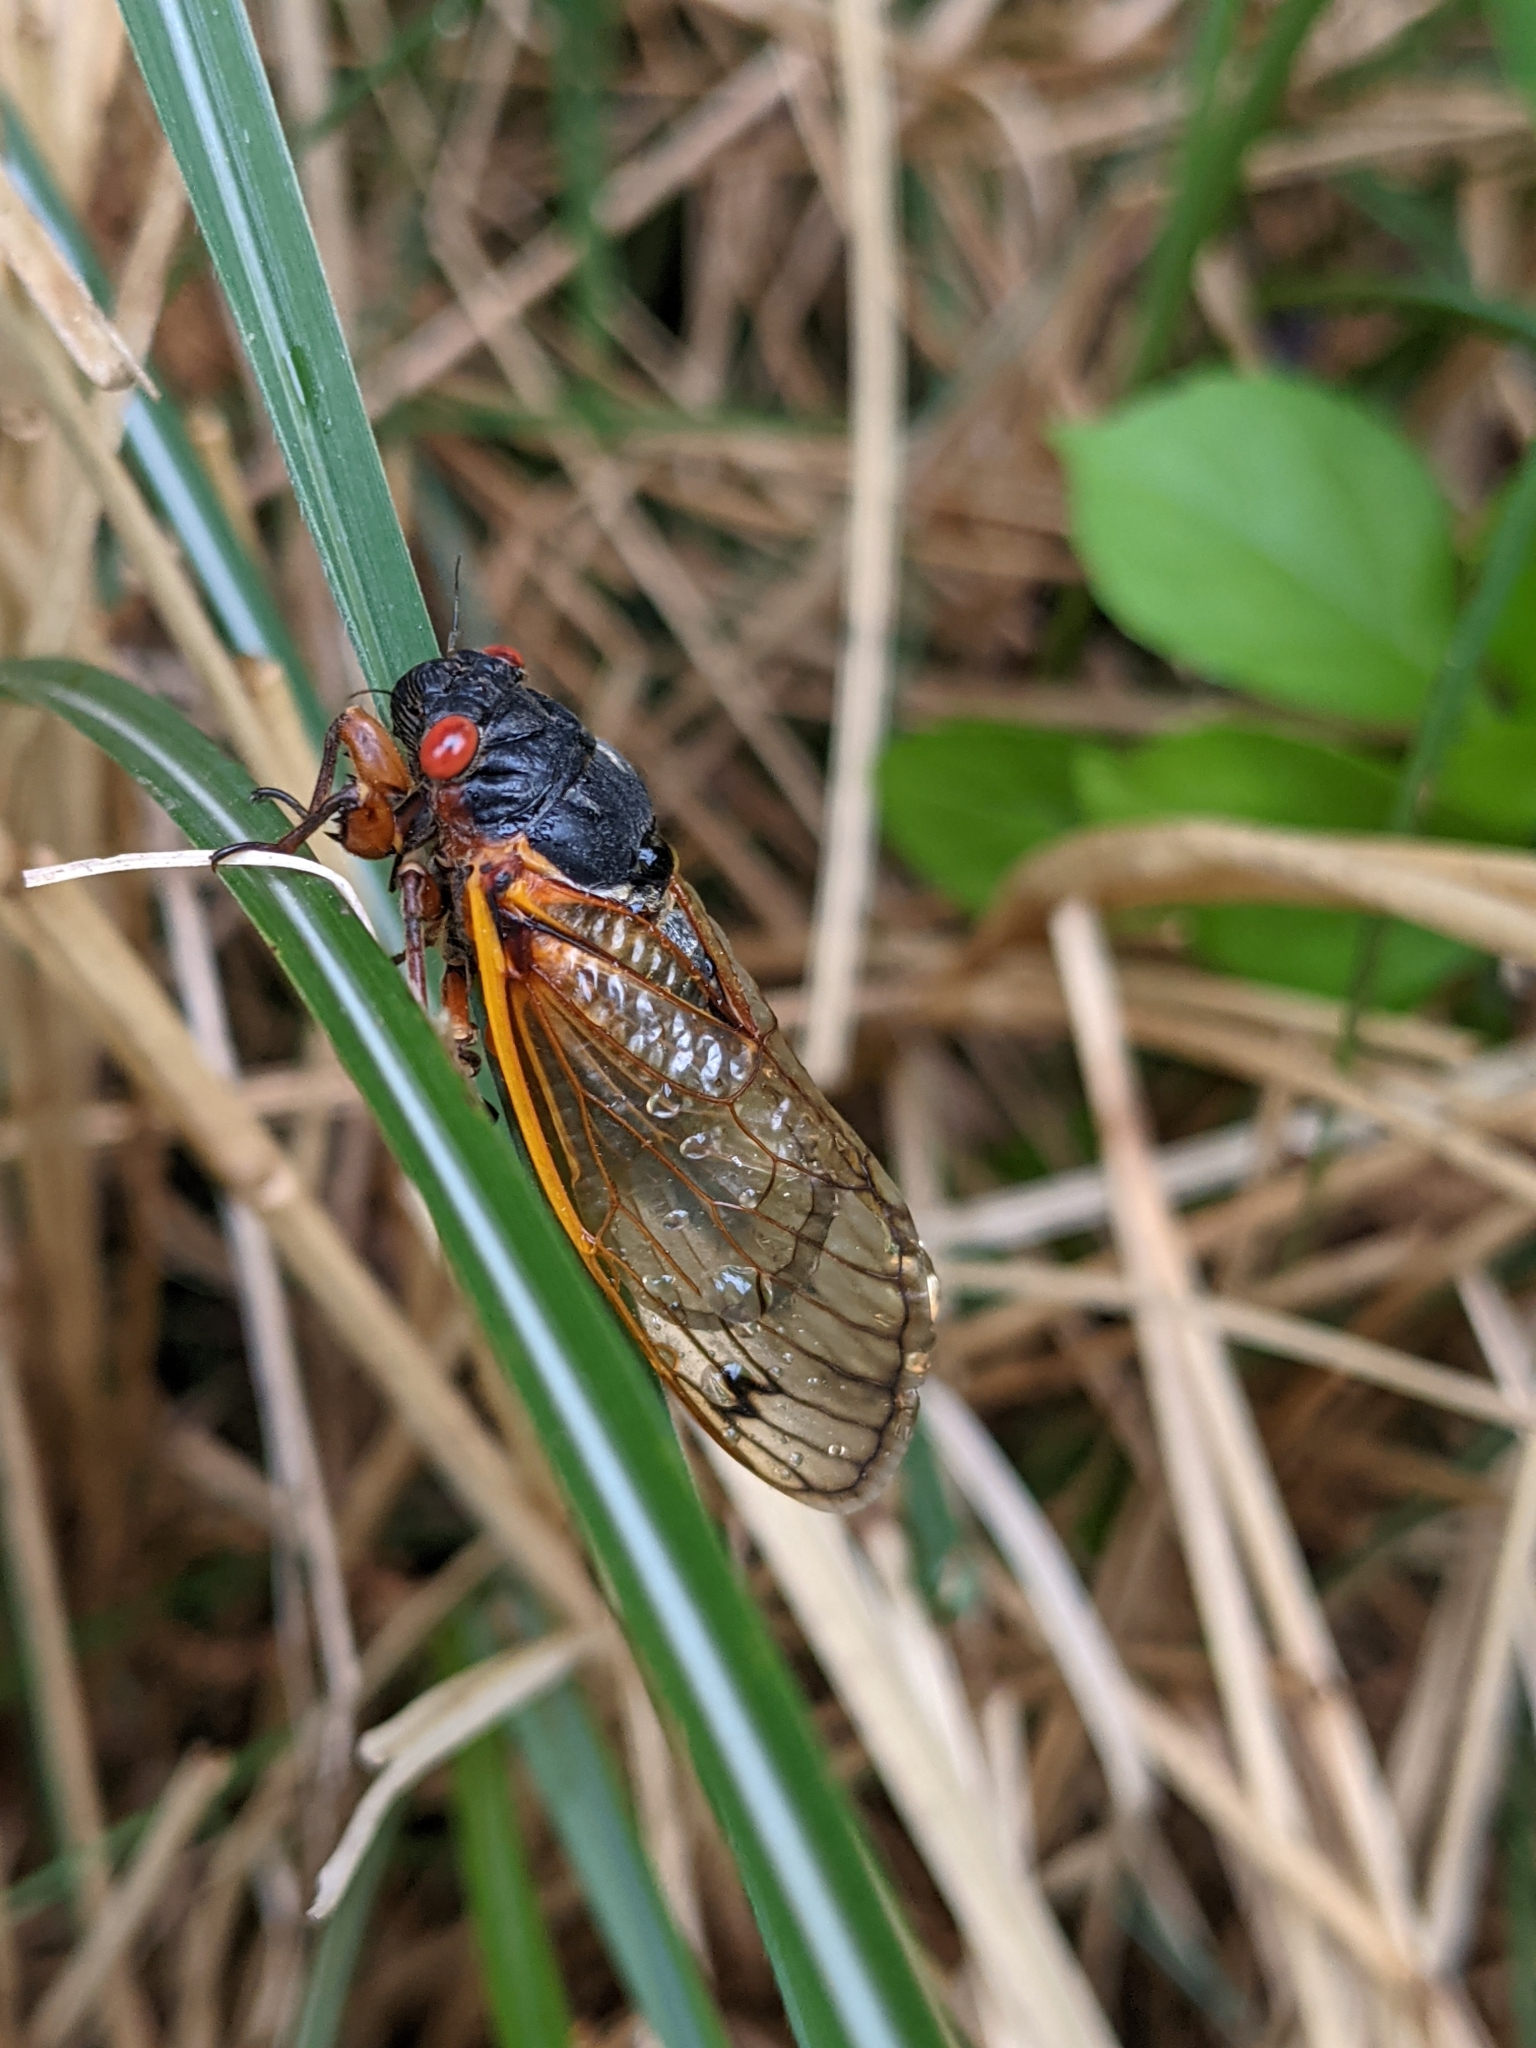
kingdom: Animalia
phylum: Arthropoda
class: Insecta
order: Hemiptera
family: Cicadidae
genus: Magicicada
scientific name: Magicicada septendecim
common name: Periodical cicada
